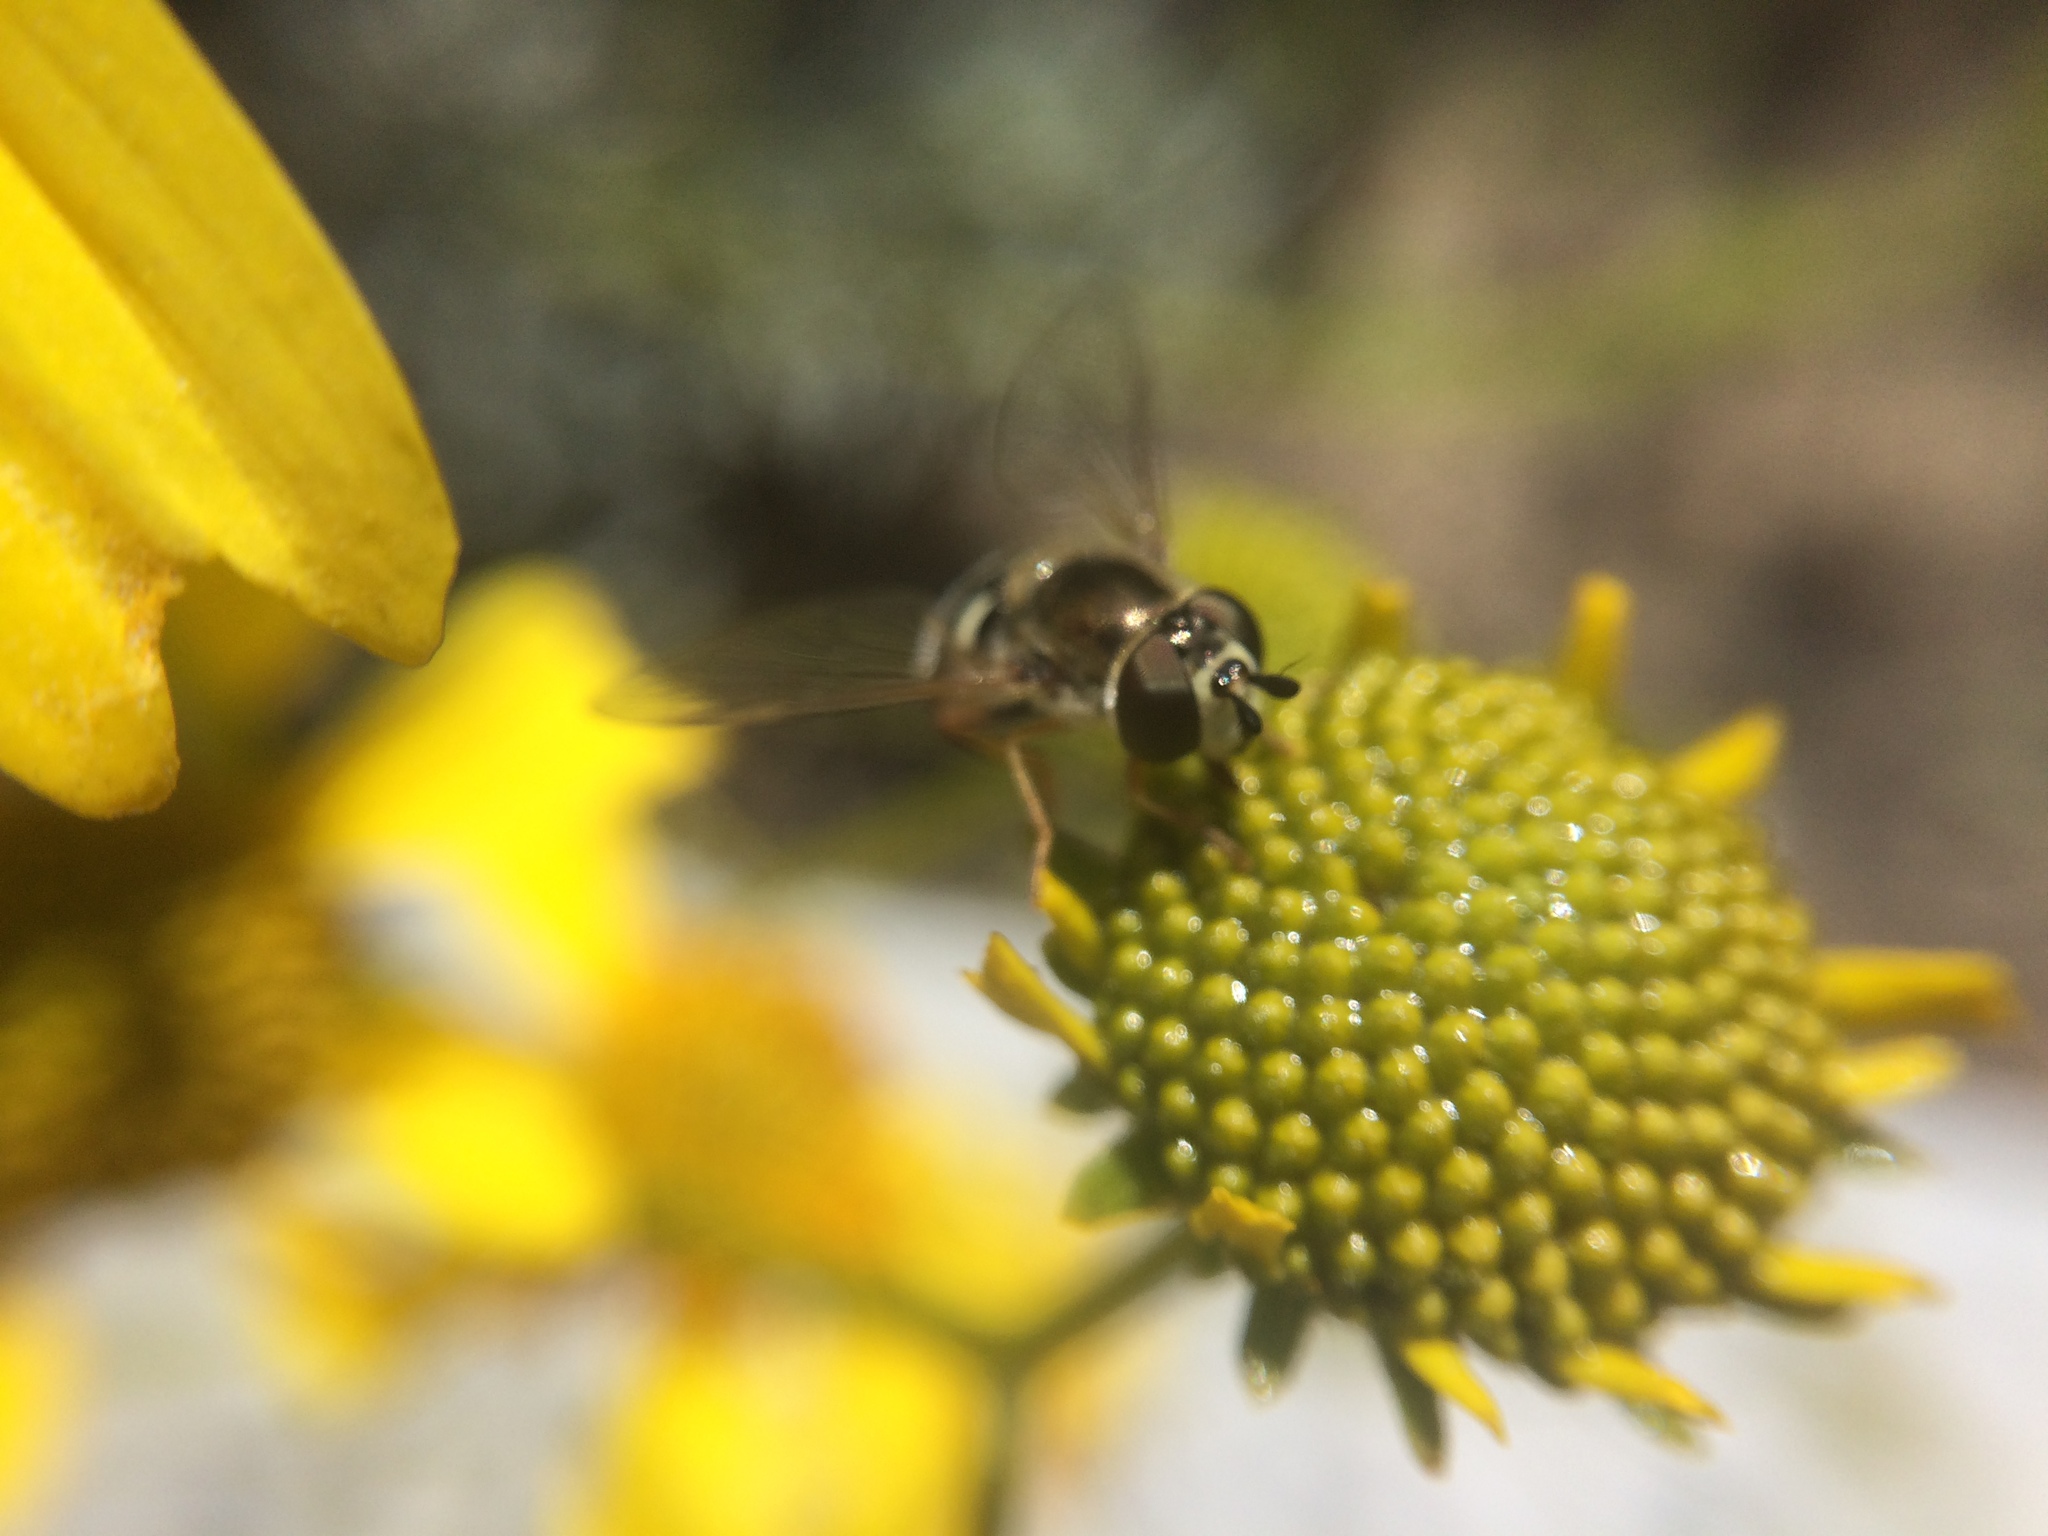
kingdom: Animalia
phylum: Arthropoda
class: Insecta
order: Diptera
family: Syrphidae
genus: Eupeodes
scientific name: Eupeodes volucris
